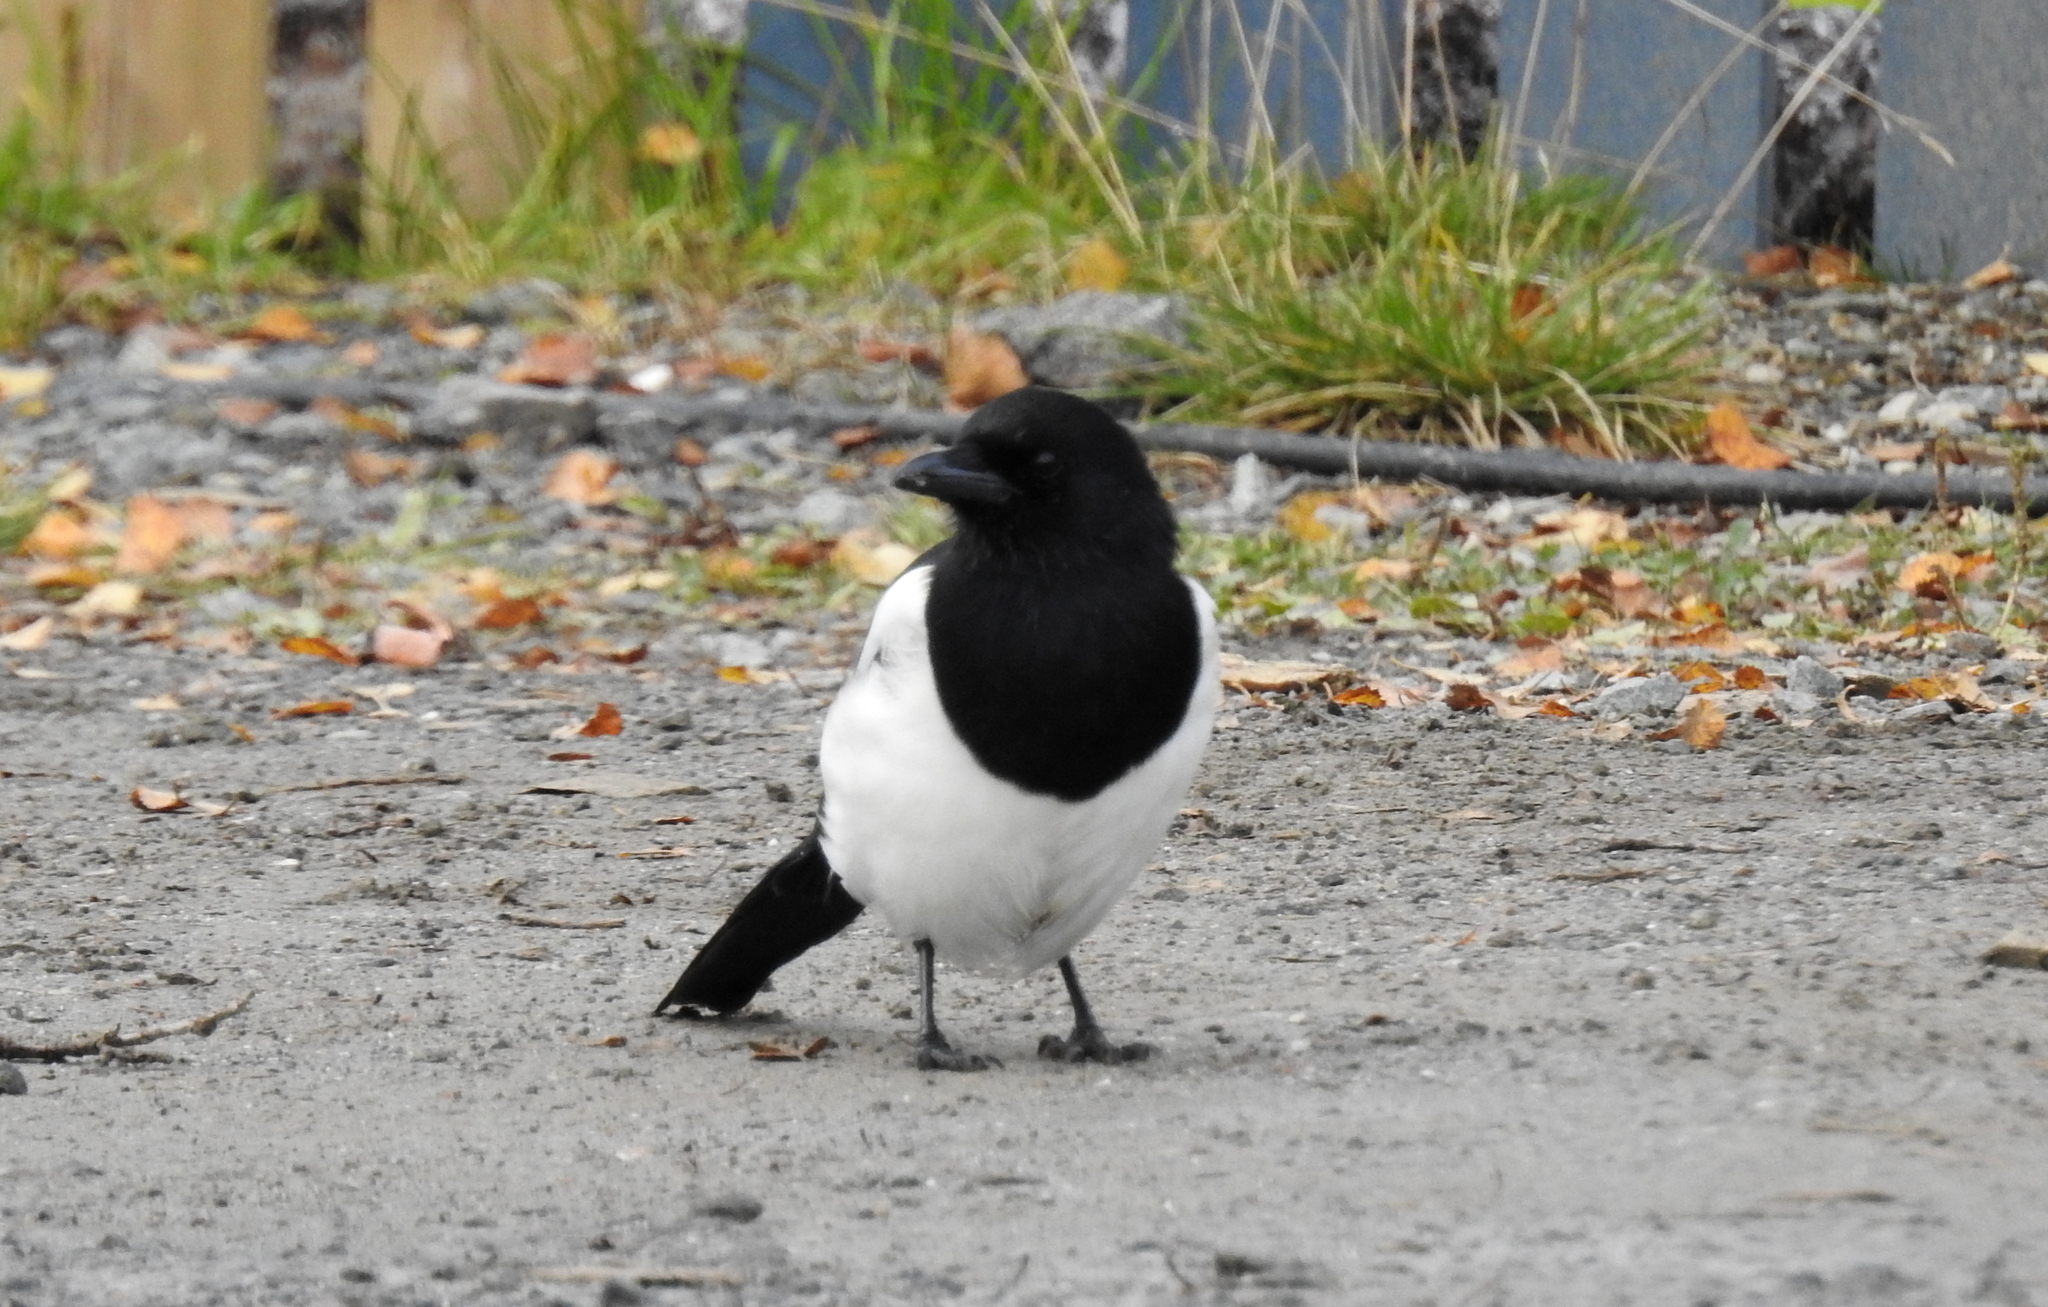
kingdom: Animalia
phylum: Chordata
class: Aves
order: Passeriformes
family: Corvidae
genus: Pica
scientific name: Pica pica
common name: Eurasian magpie
